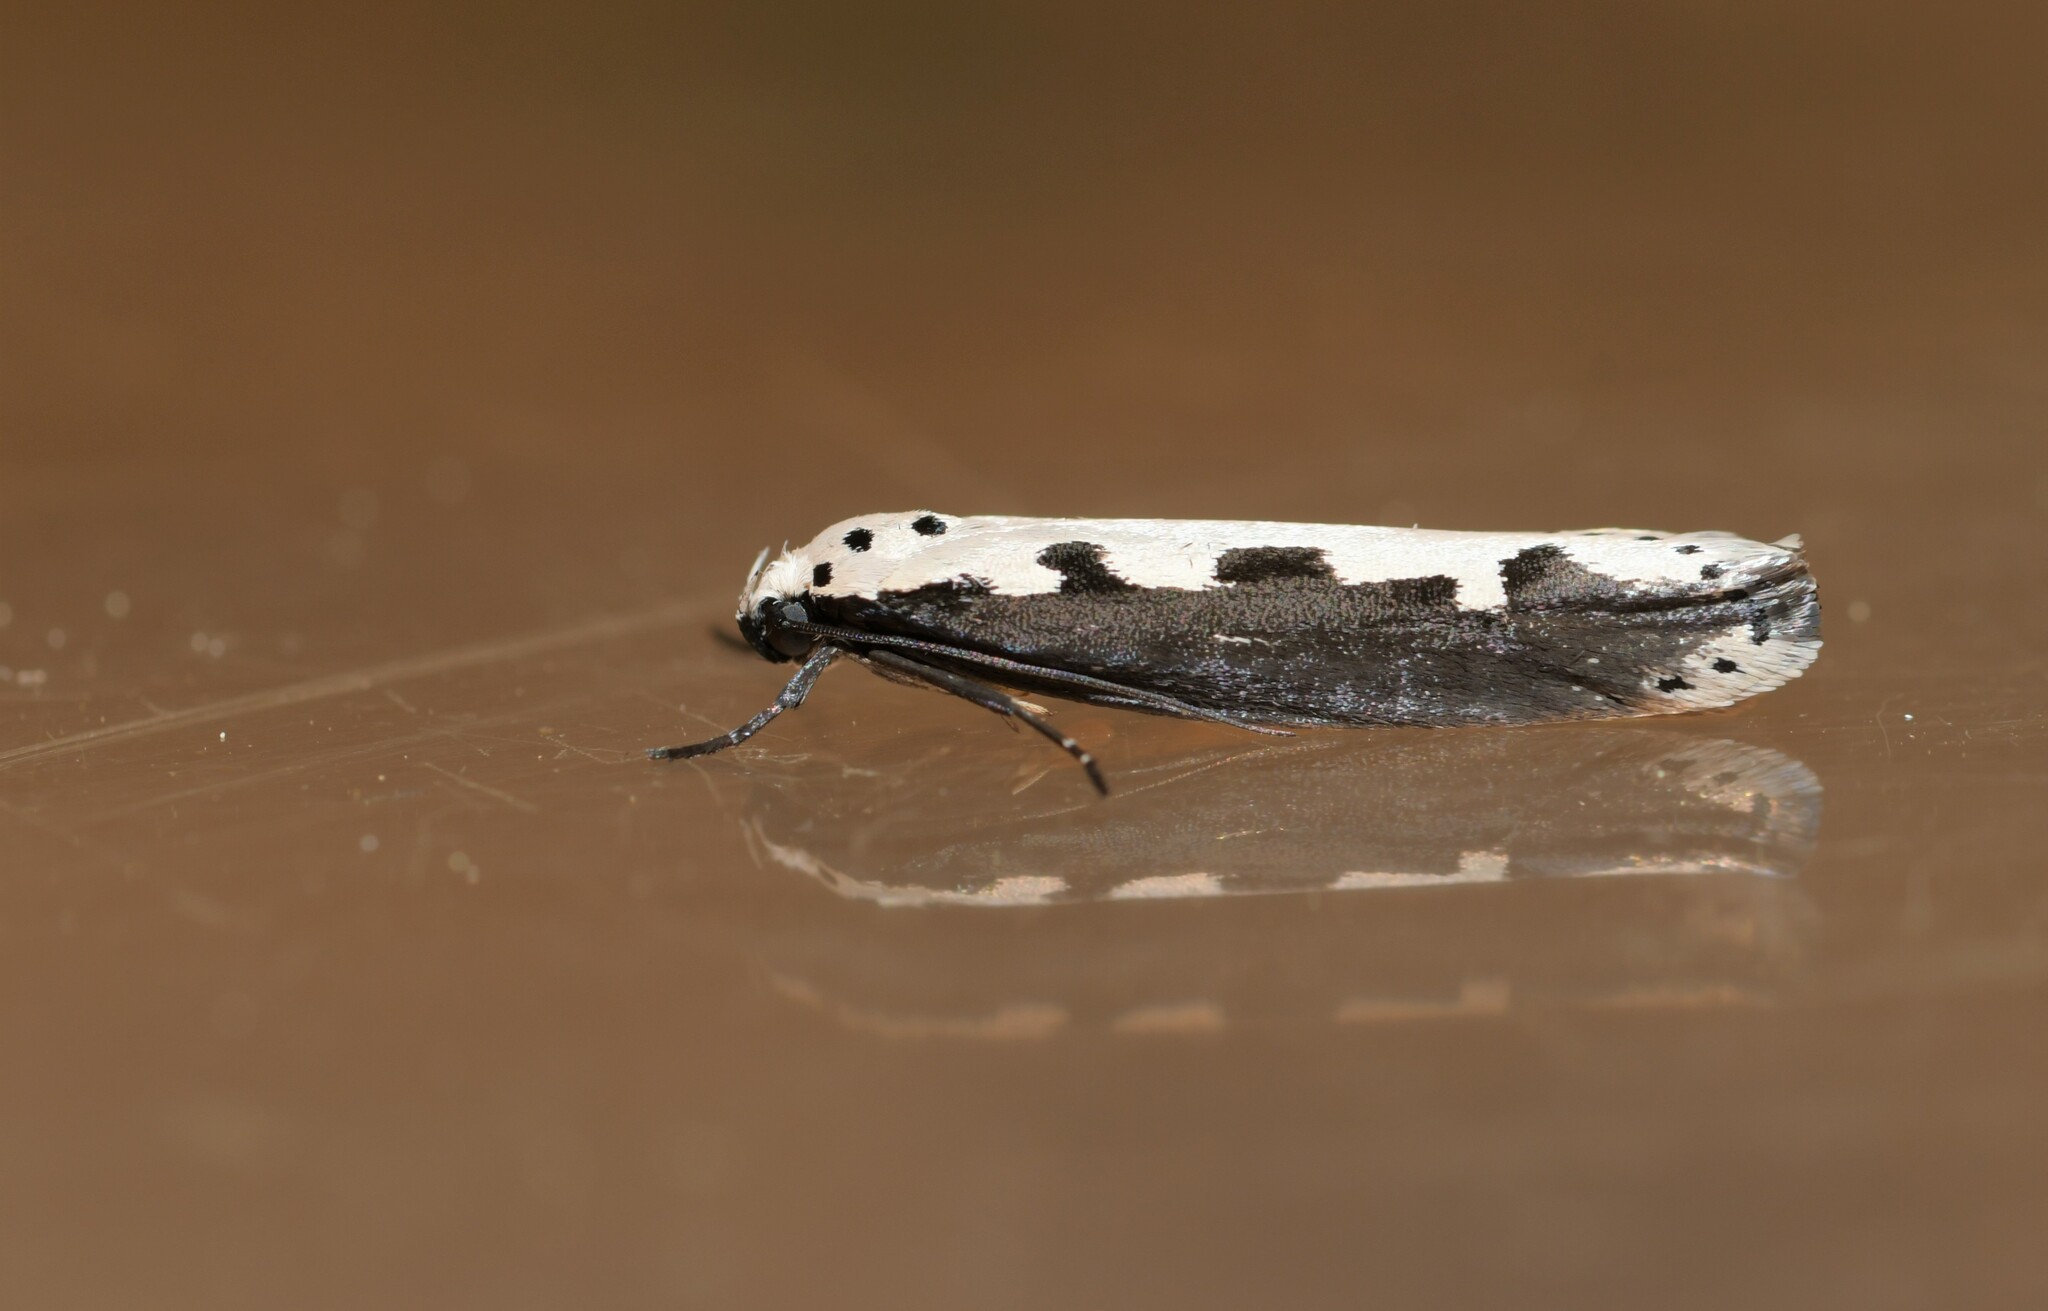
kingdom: Animalia
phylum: Arthropoda
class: Insecta
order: Lepidoptera
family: Ethmiidae
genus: Ethmia
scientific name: Ethmia bipunctella
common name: Bordered ermel
